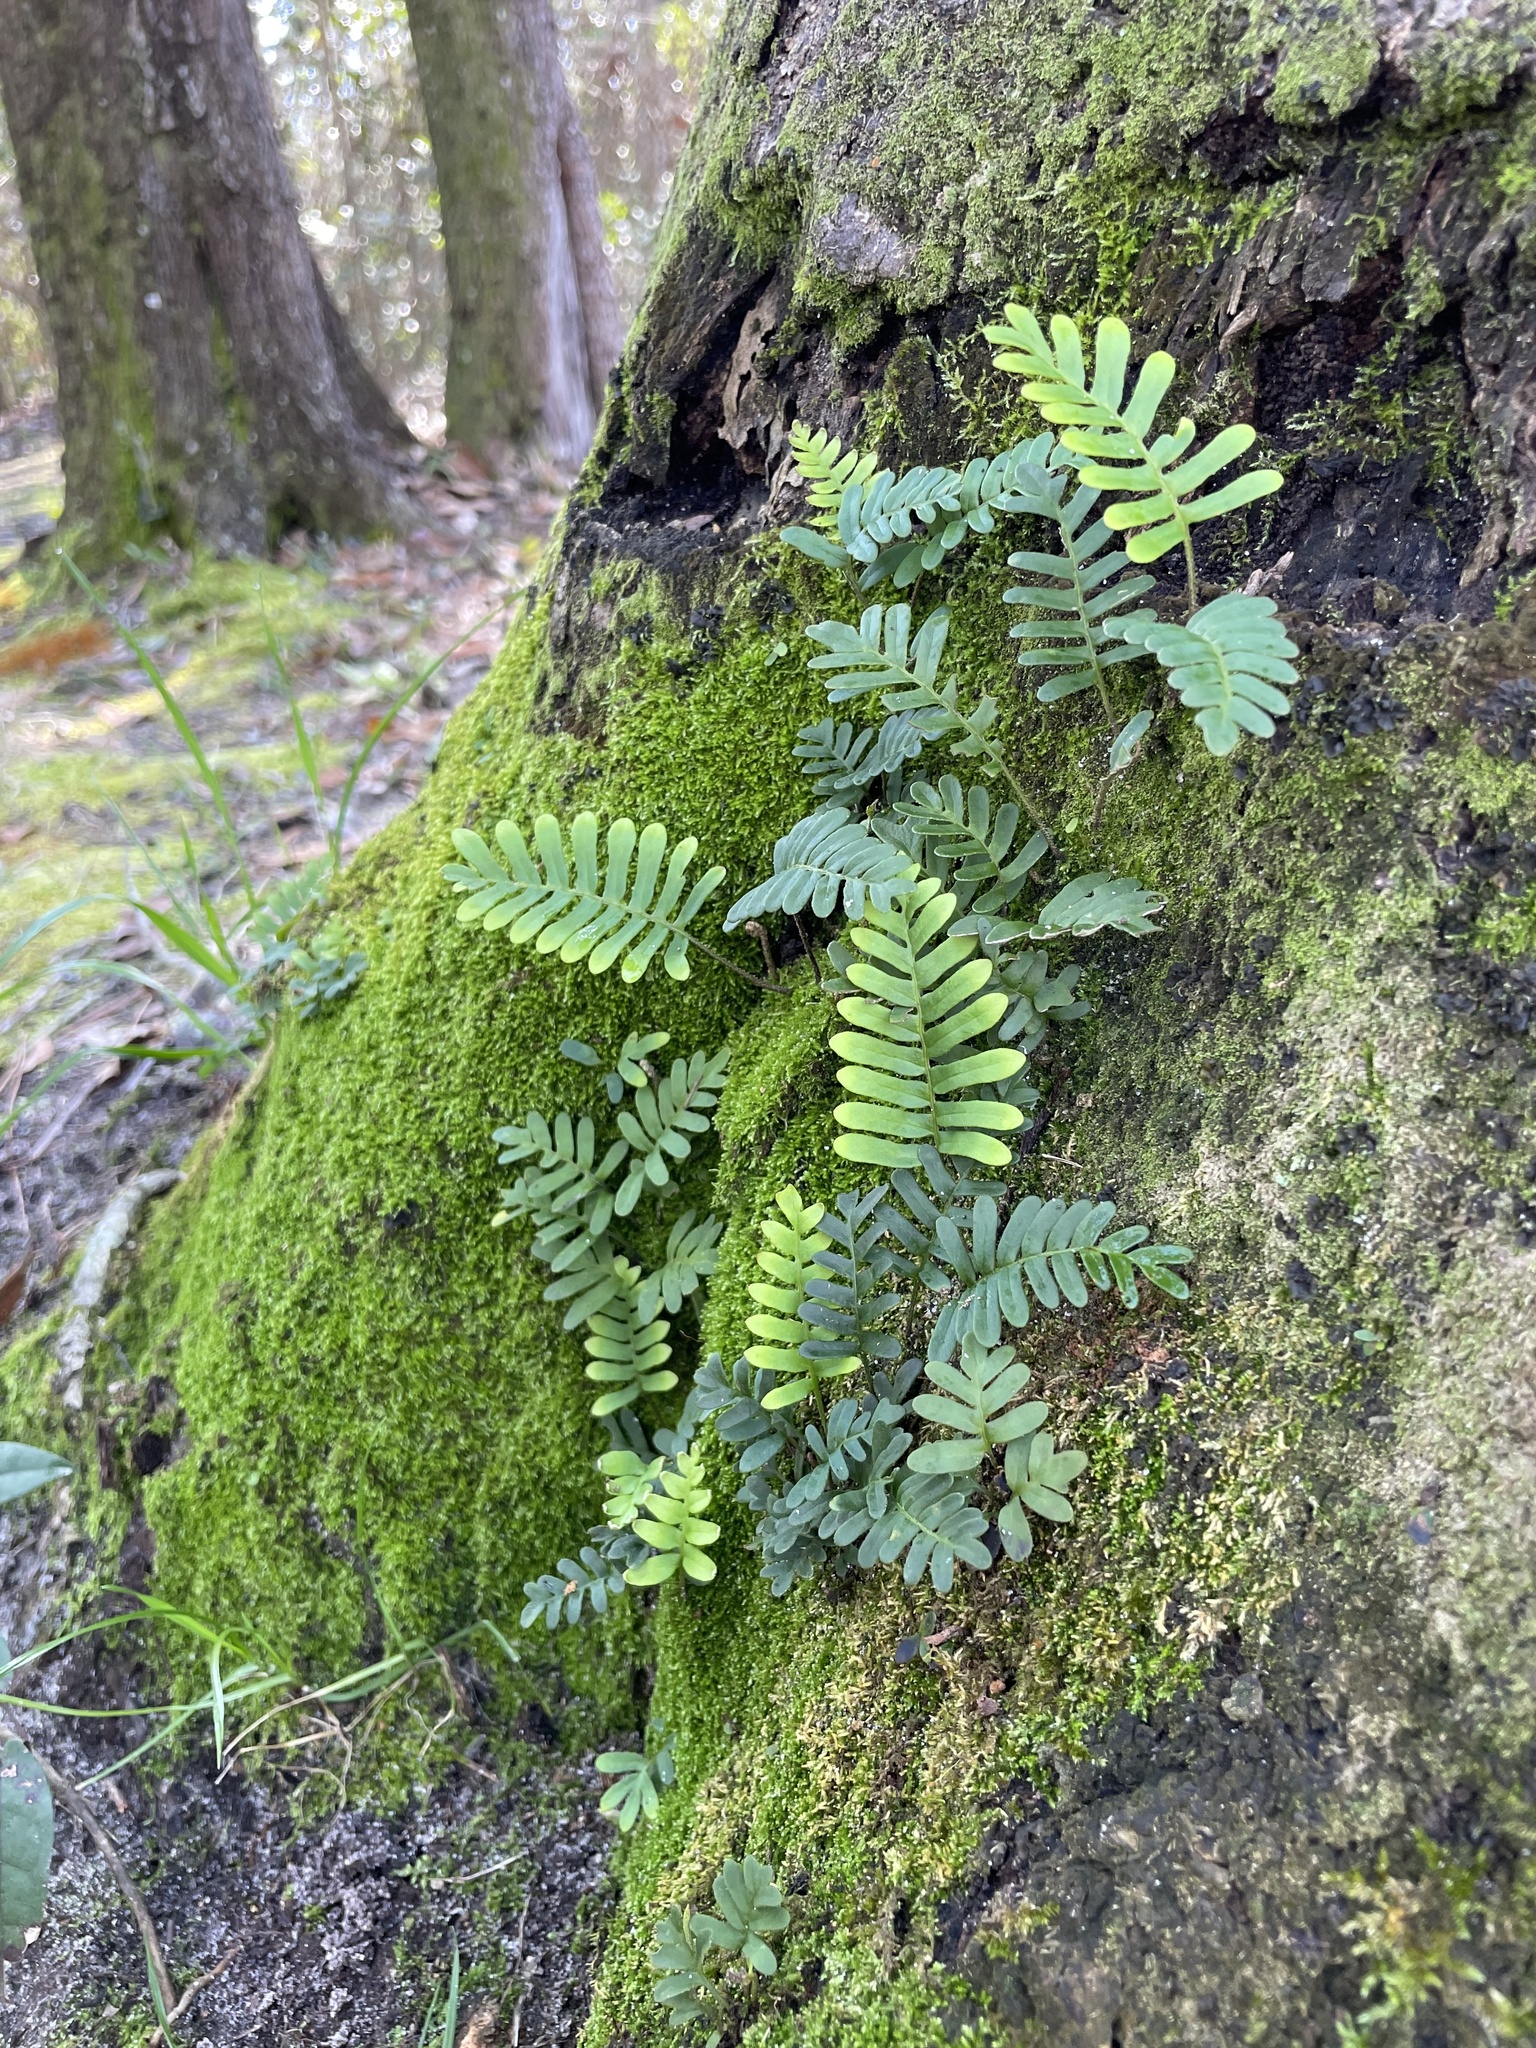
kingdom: Plantae
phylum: Tracheophyta
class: Polypodiopsida
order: Polypodiales
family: Polypodiaceae
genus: Pleopeltis
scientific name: Pleopeltis michauxiana
